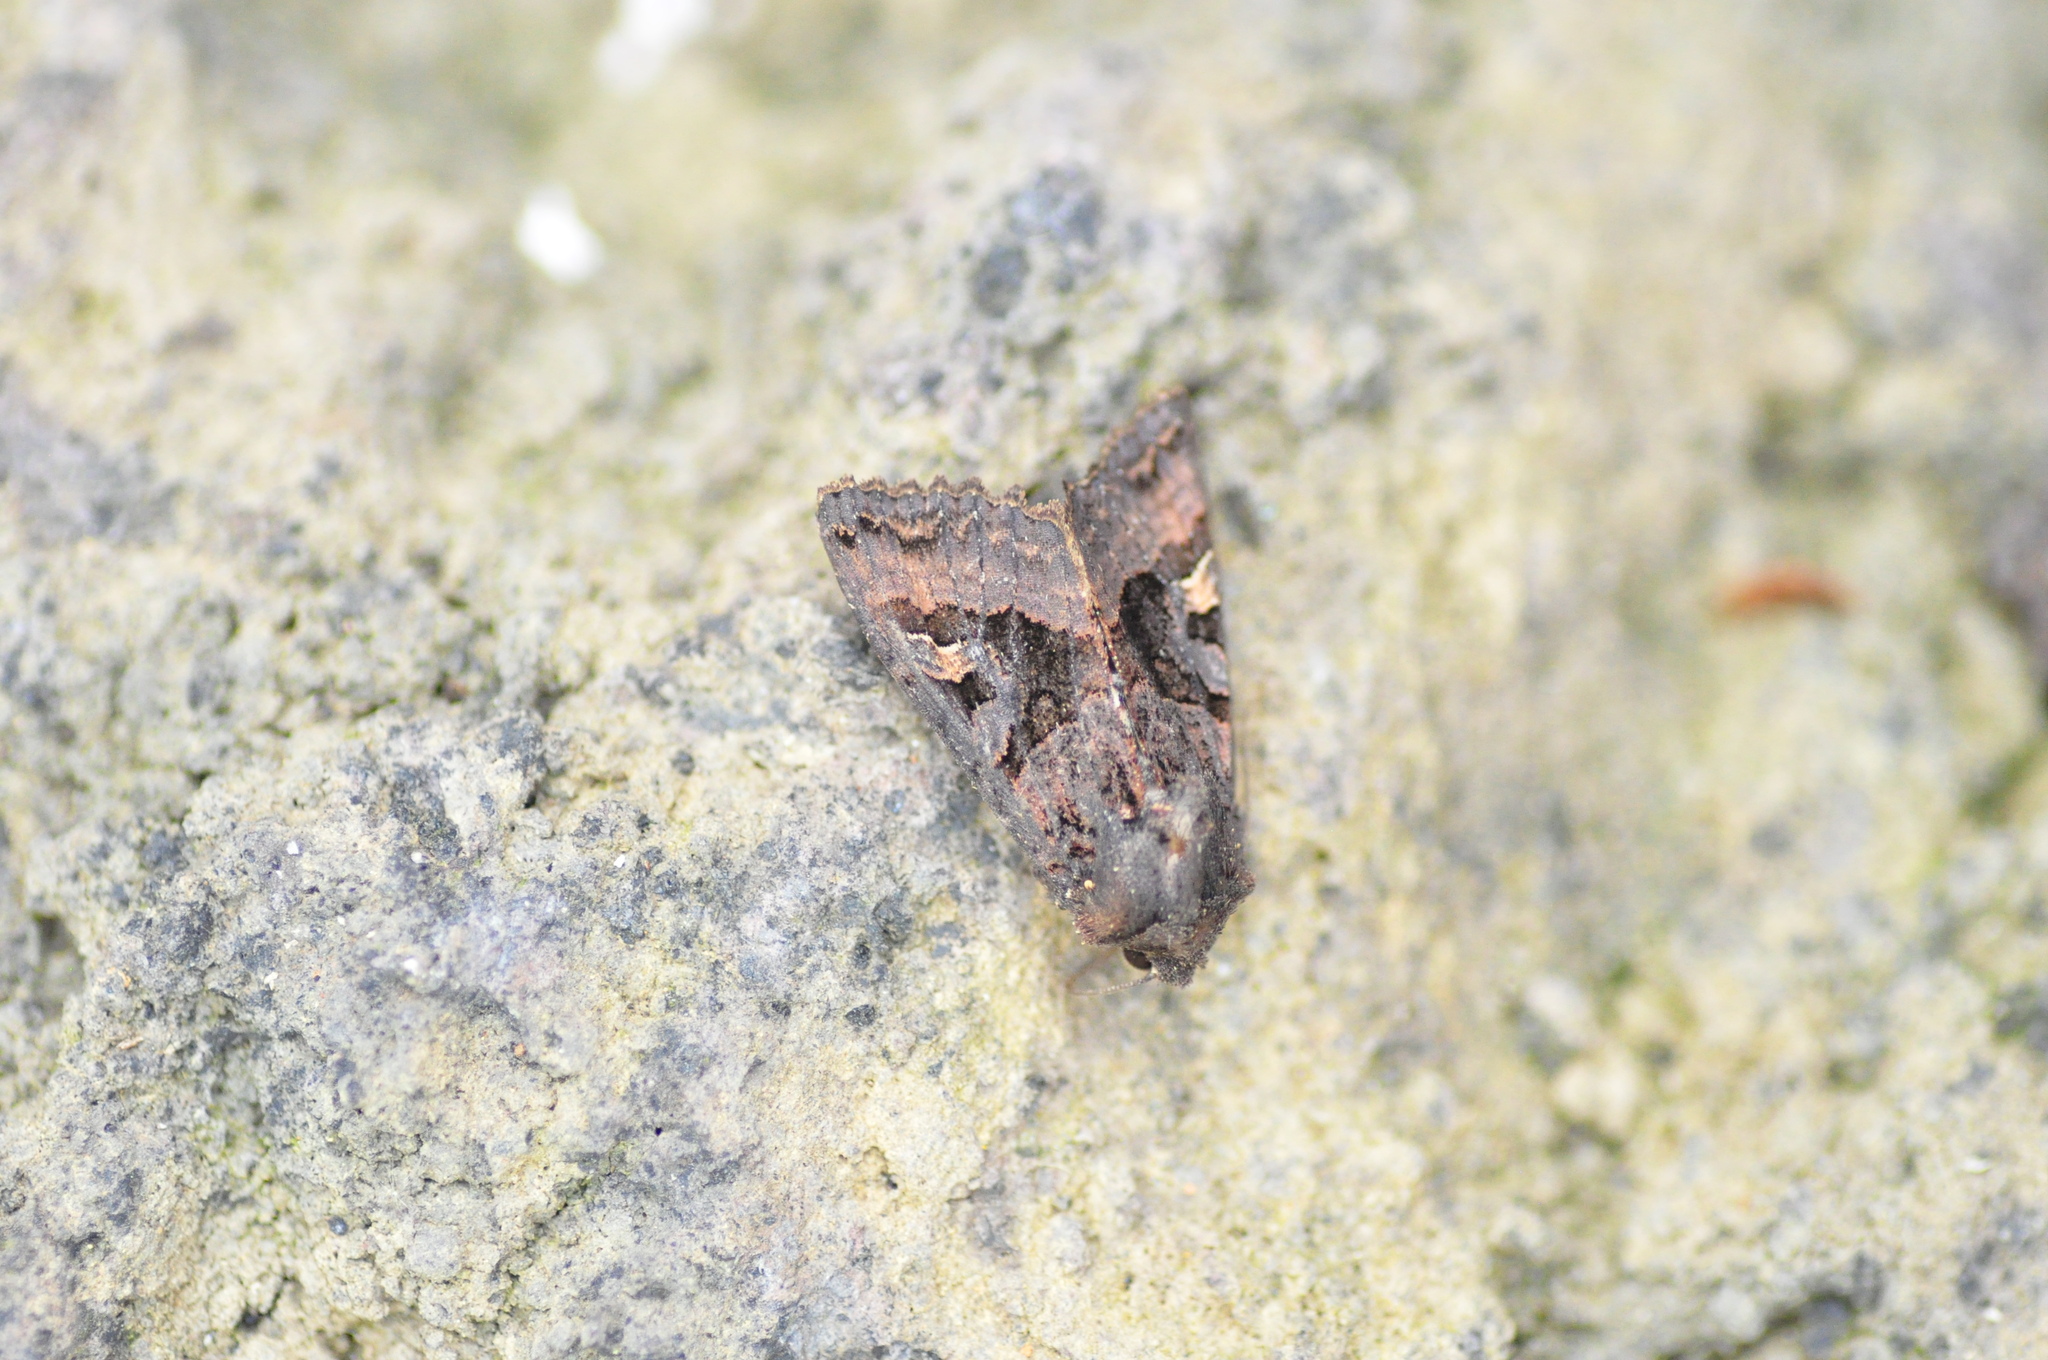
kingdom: Animalia
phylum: Arthropoda
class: Insecta
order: Lepidoptera
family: Noctuidae
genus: Euplexia
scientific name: Euplexia euplexina
